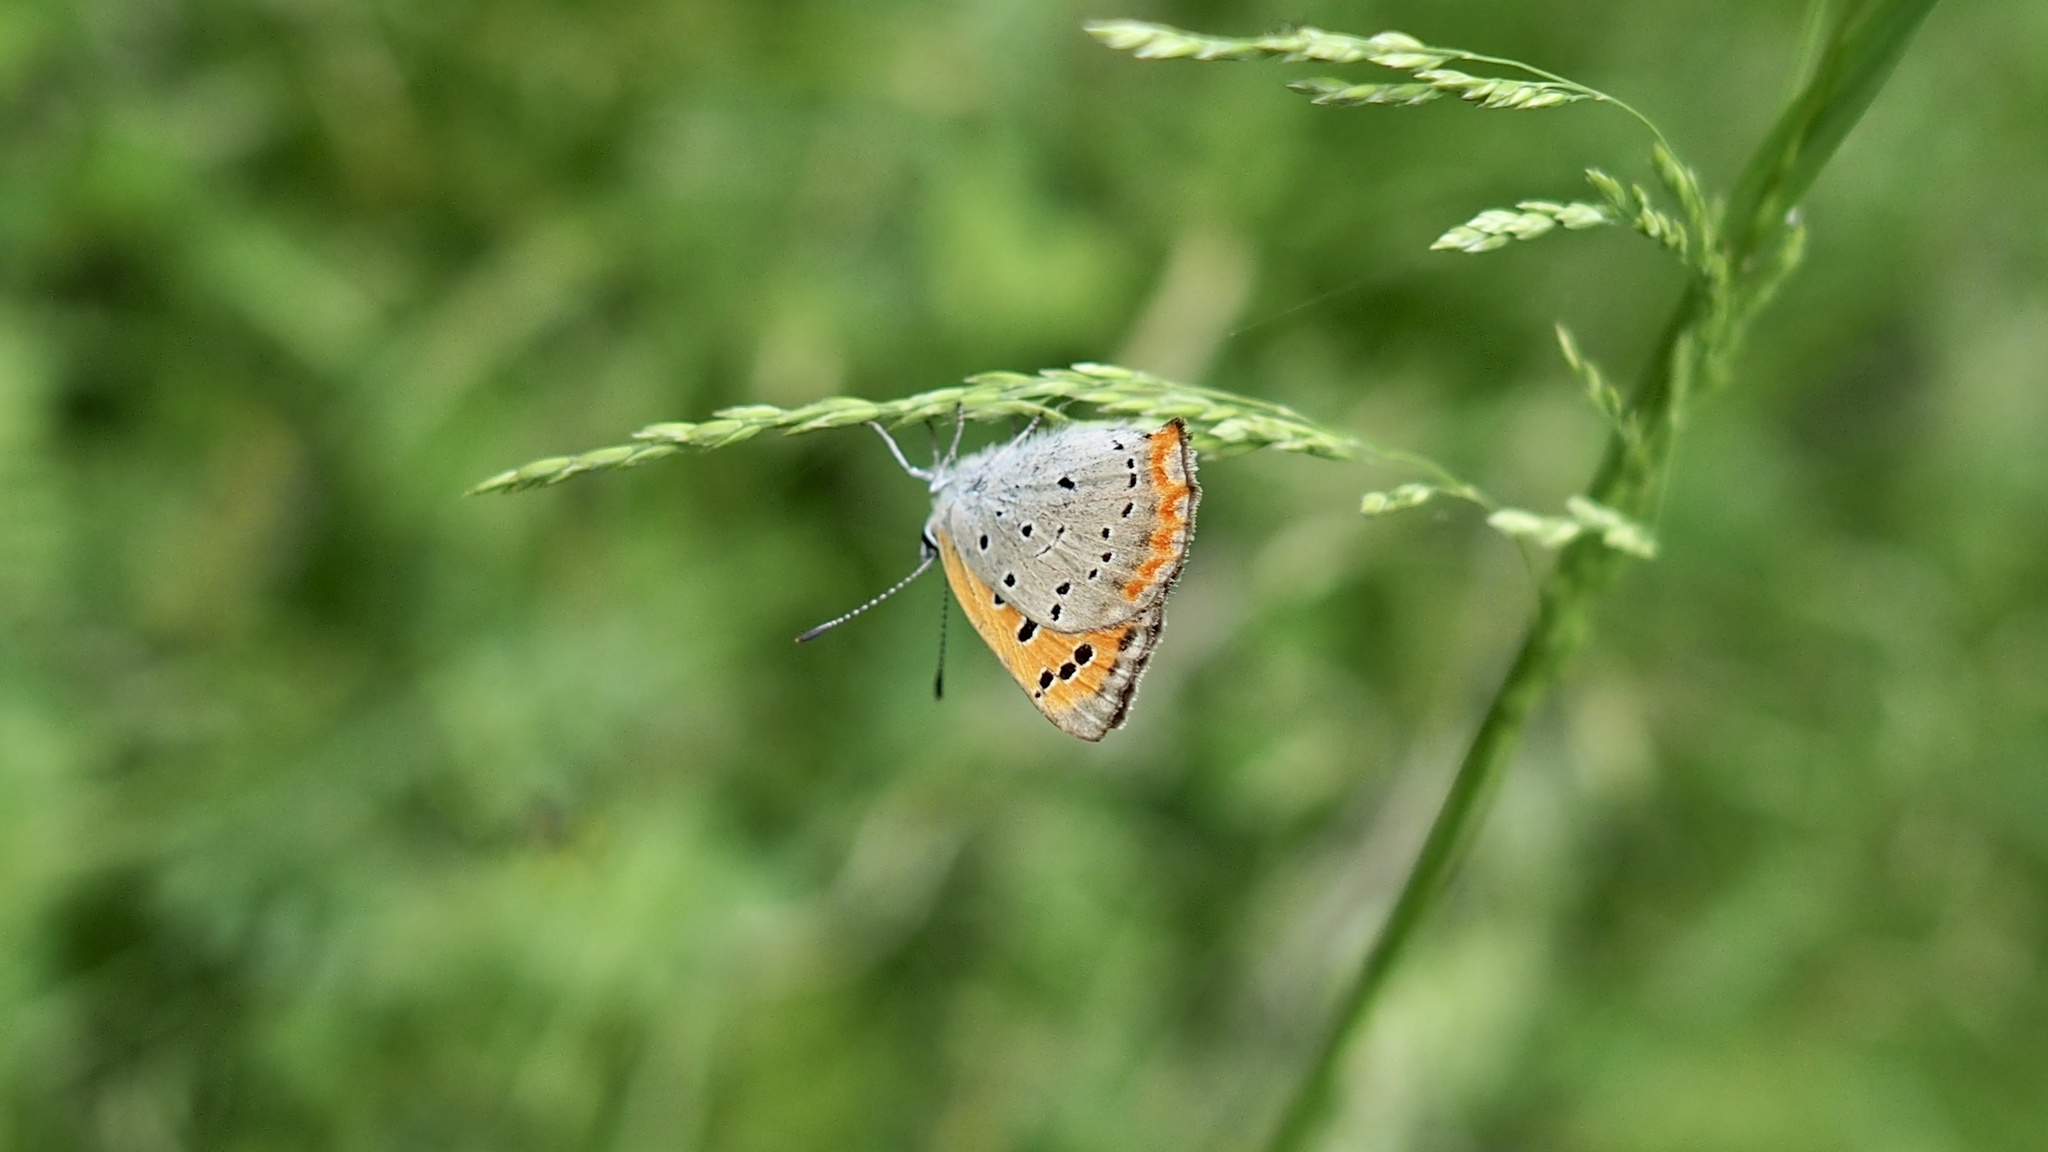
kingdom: Animalia
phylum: Arthropoda
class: Insecta
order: Lepidoptera
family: Lycaenidae
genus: Lycaena
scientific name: Lycaena phlaeas
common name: Small copper
